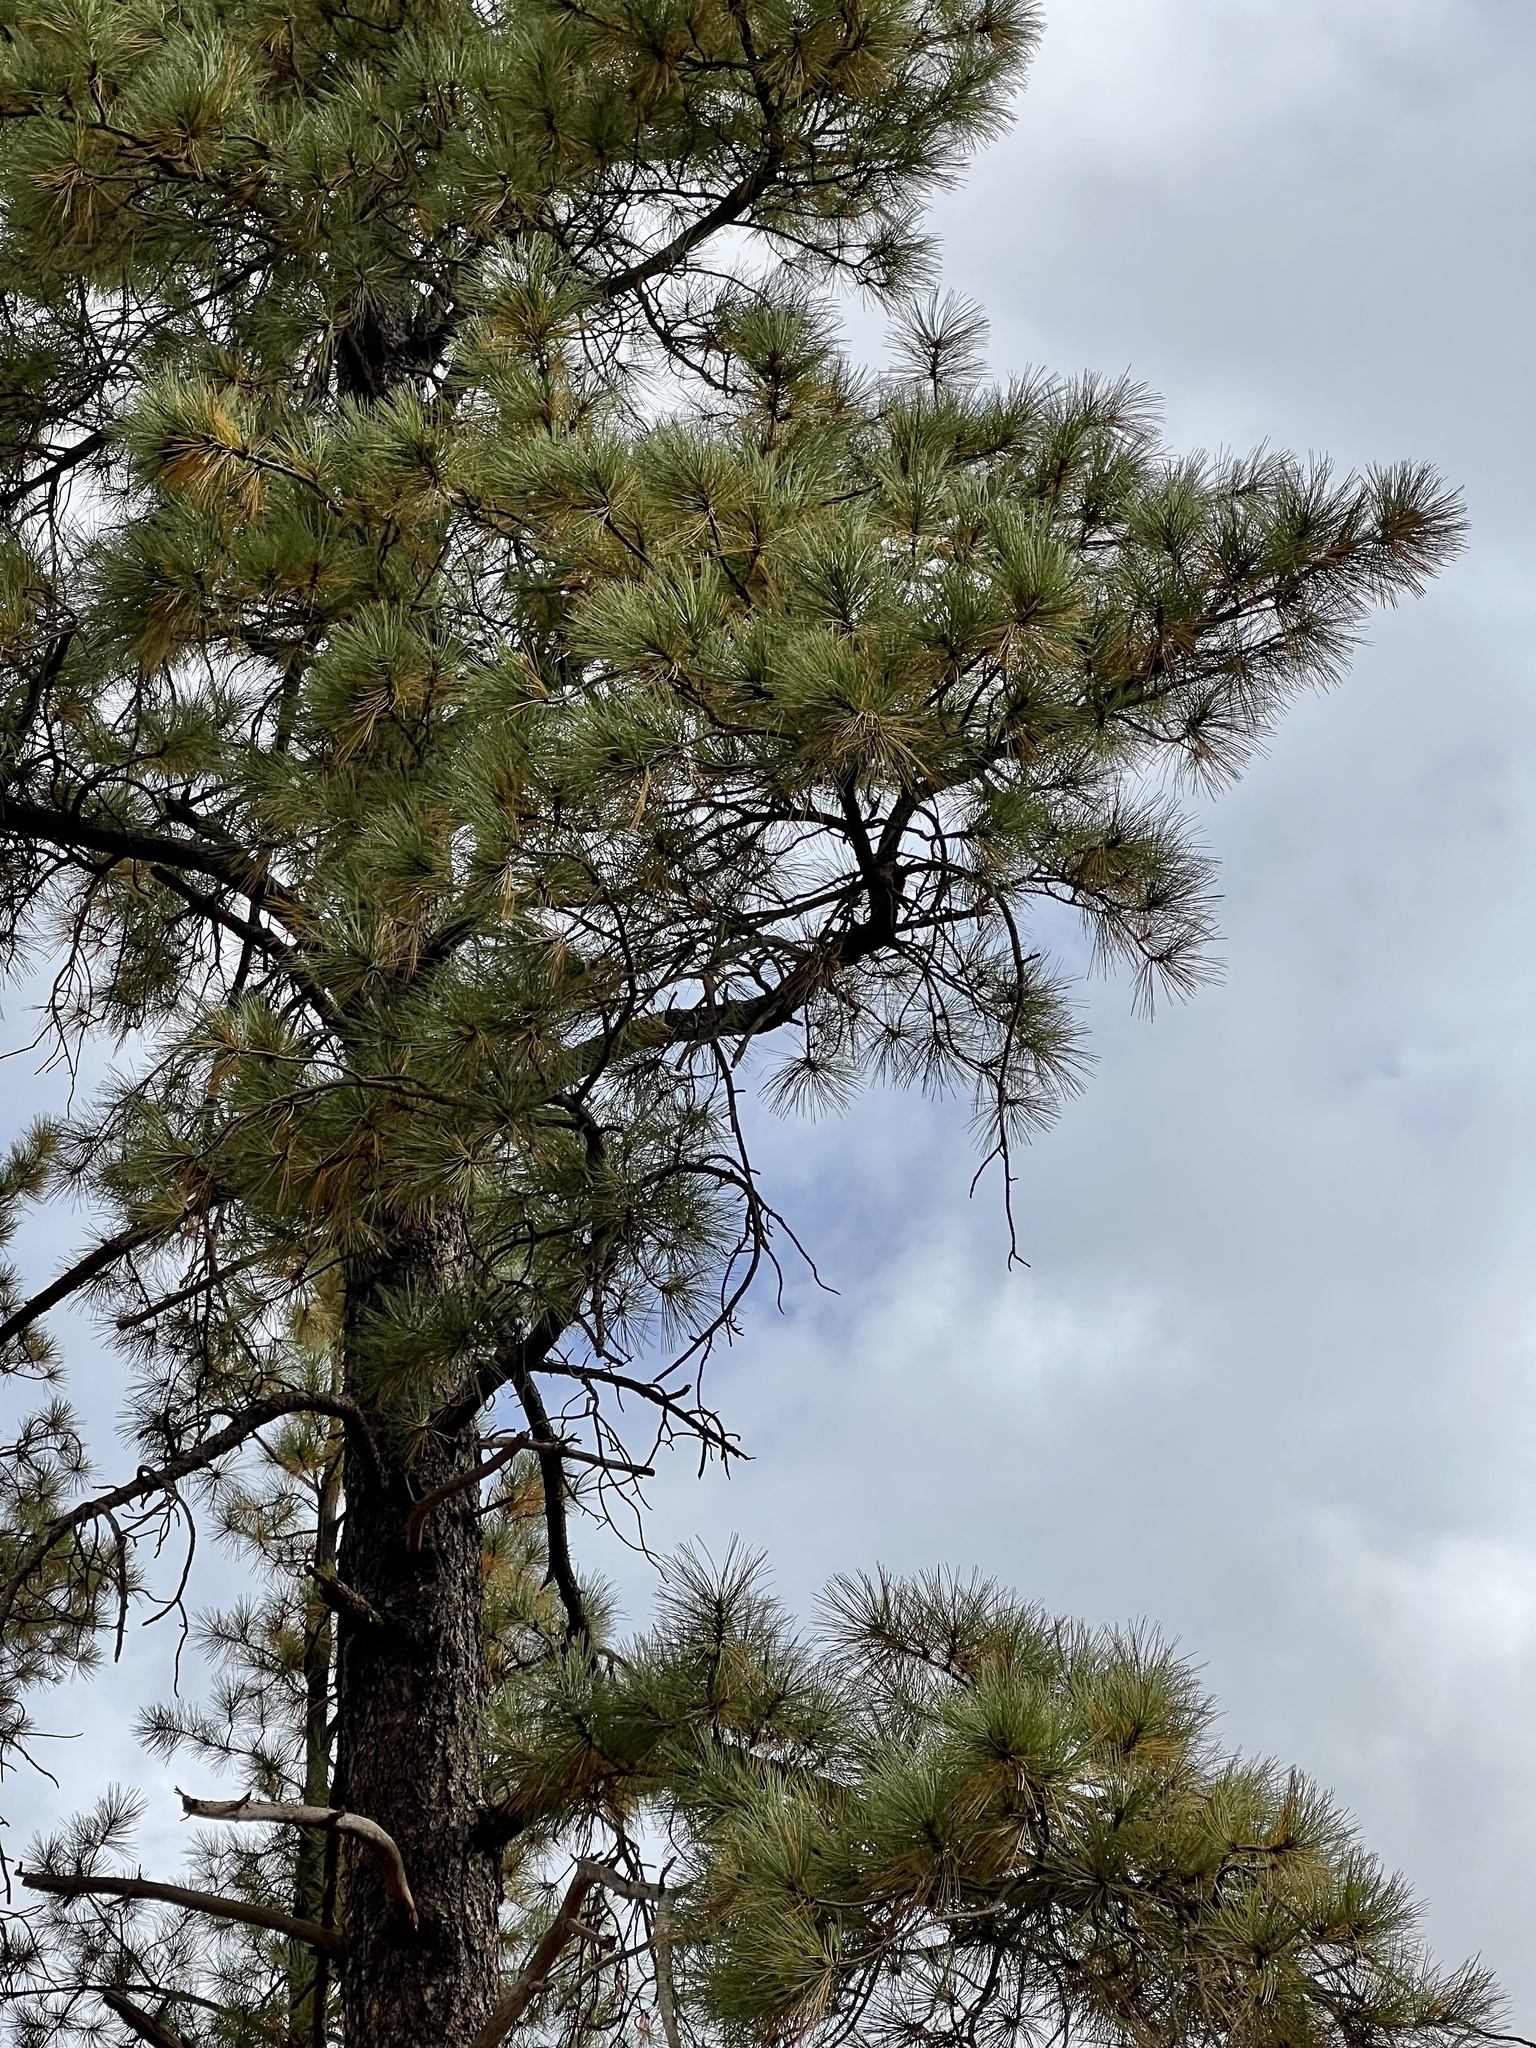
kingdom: Plantae
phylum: Tracheophyta
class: Pinopsida
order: Pinales
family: Pinaceae
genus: Pinus
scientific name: Pinus ponderosa
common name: Western yellow-pine
